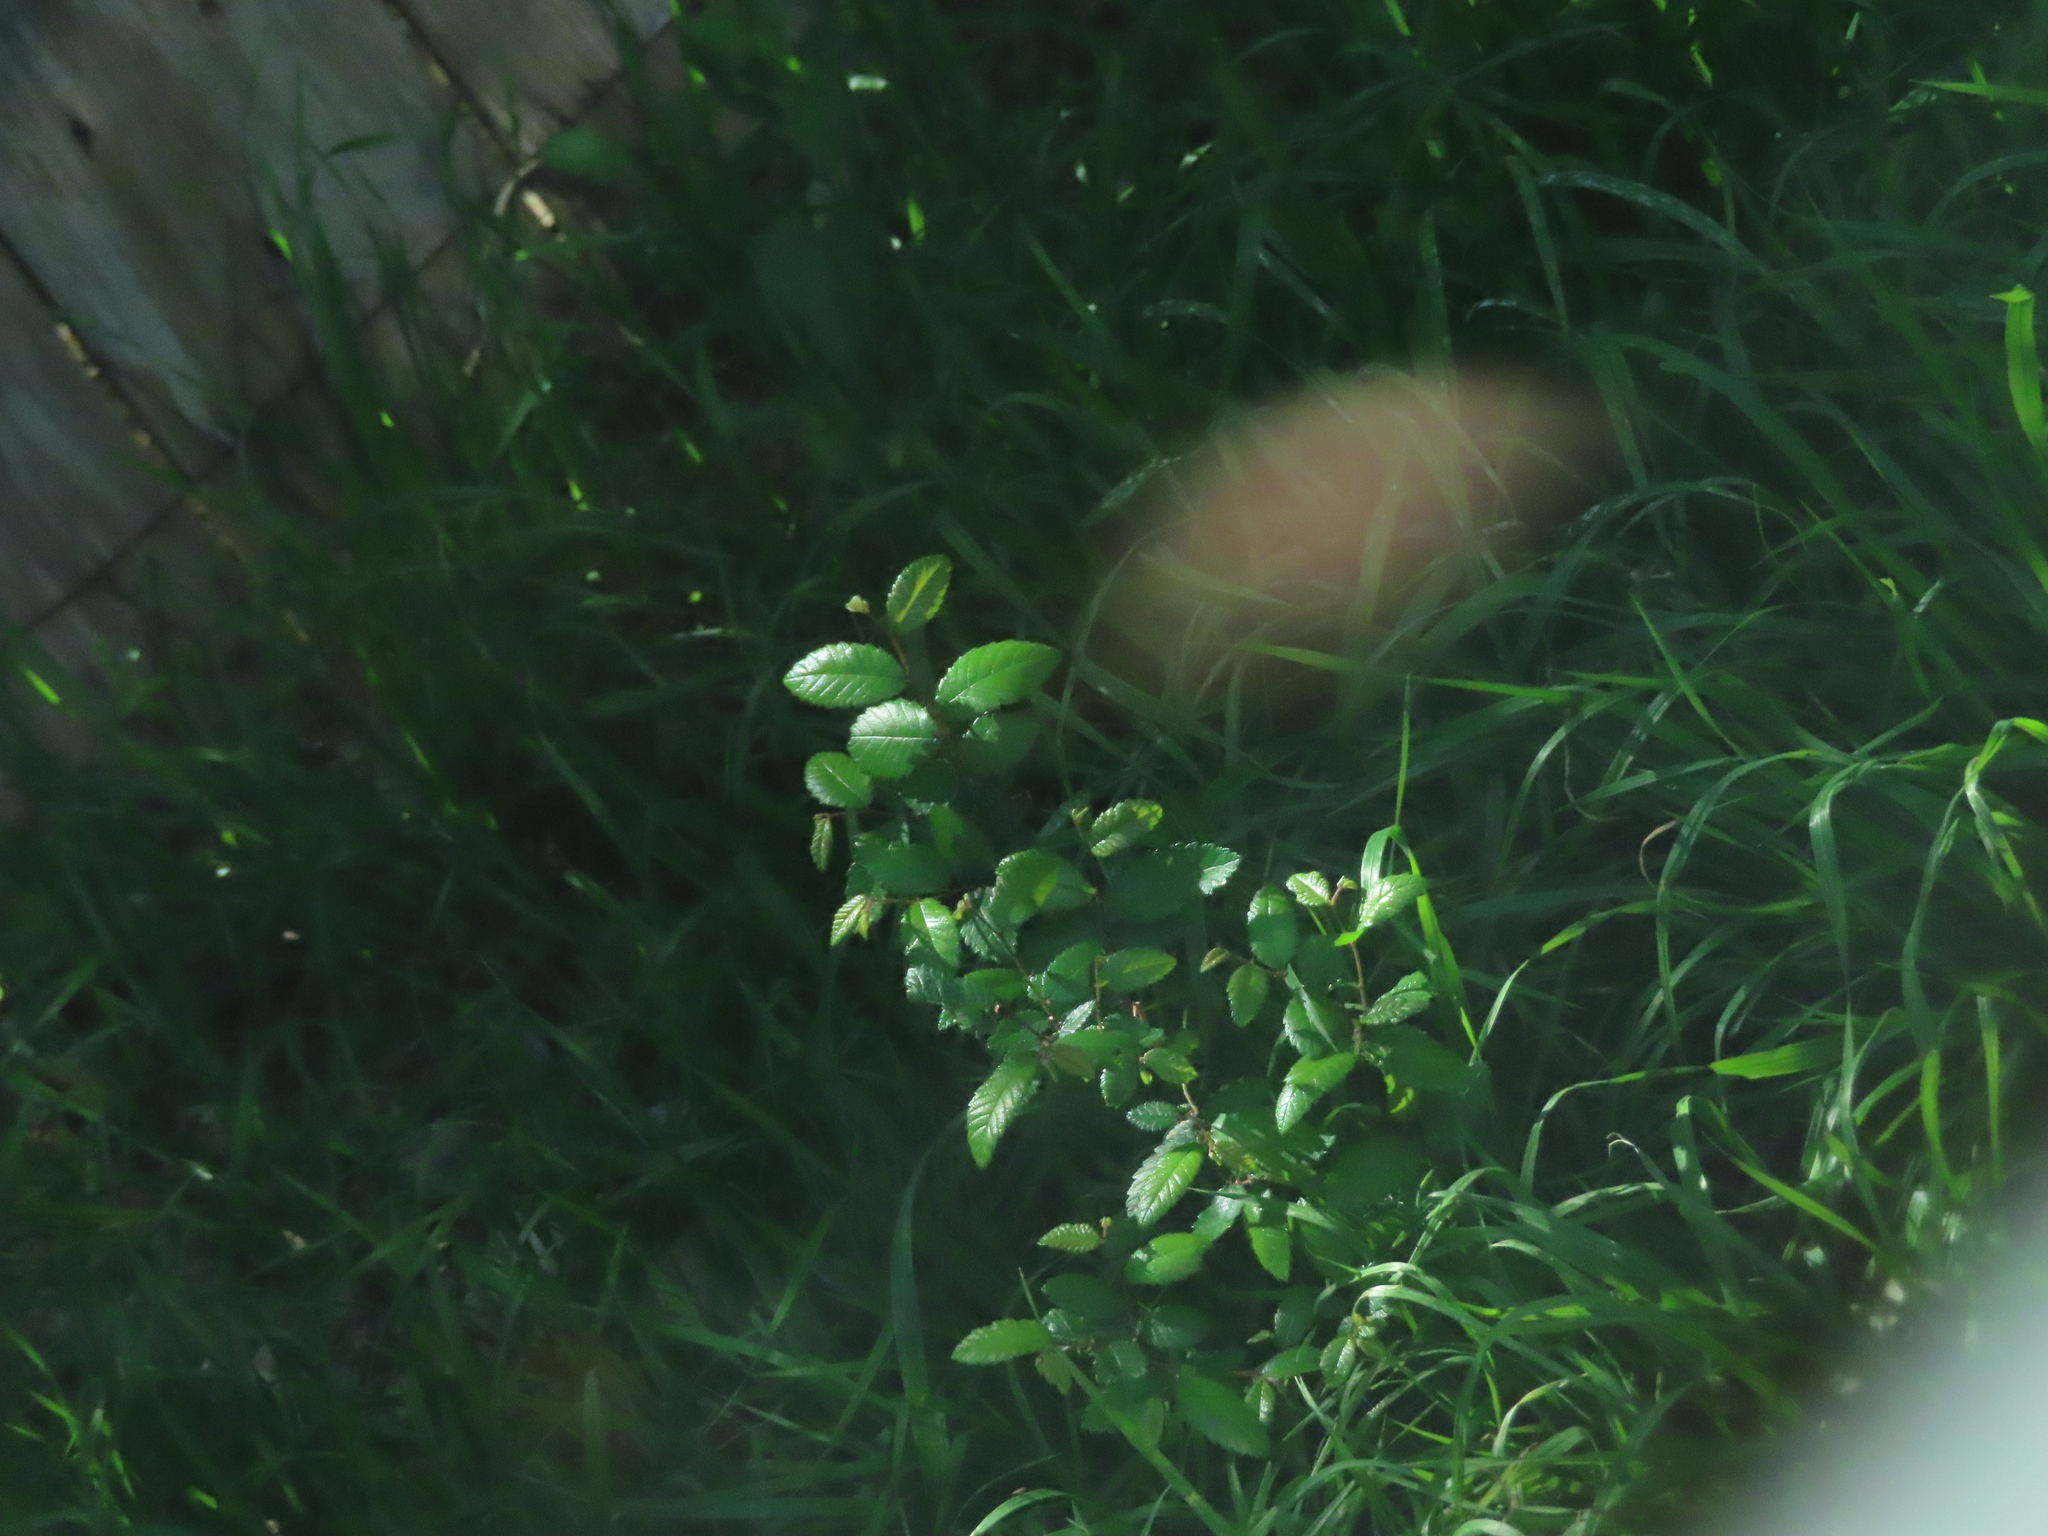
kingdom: Plantae
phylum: Tracheophyta
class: Magnoliopsida
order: Rosales
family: Ulmaceae
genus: Ulmus
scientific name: Ulmus crassifolia
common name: Basket elm
